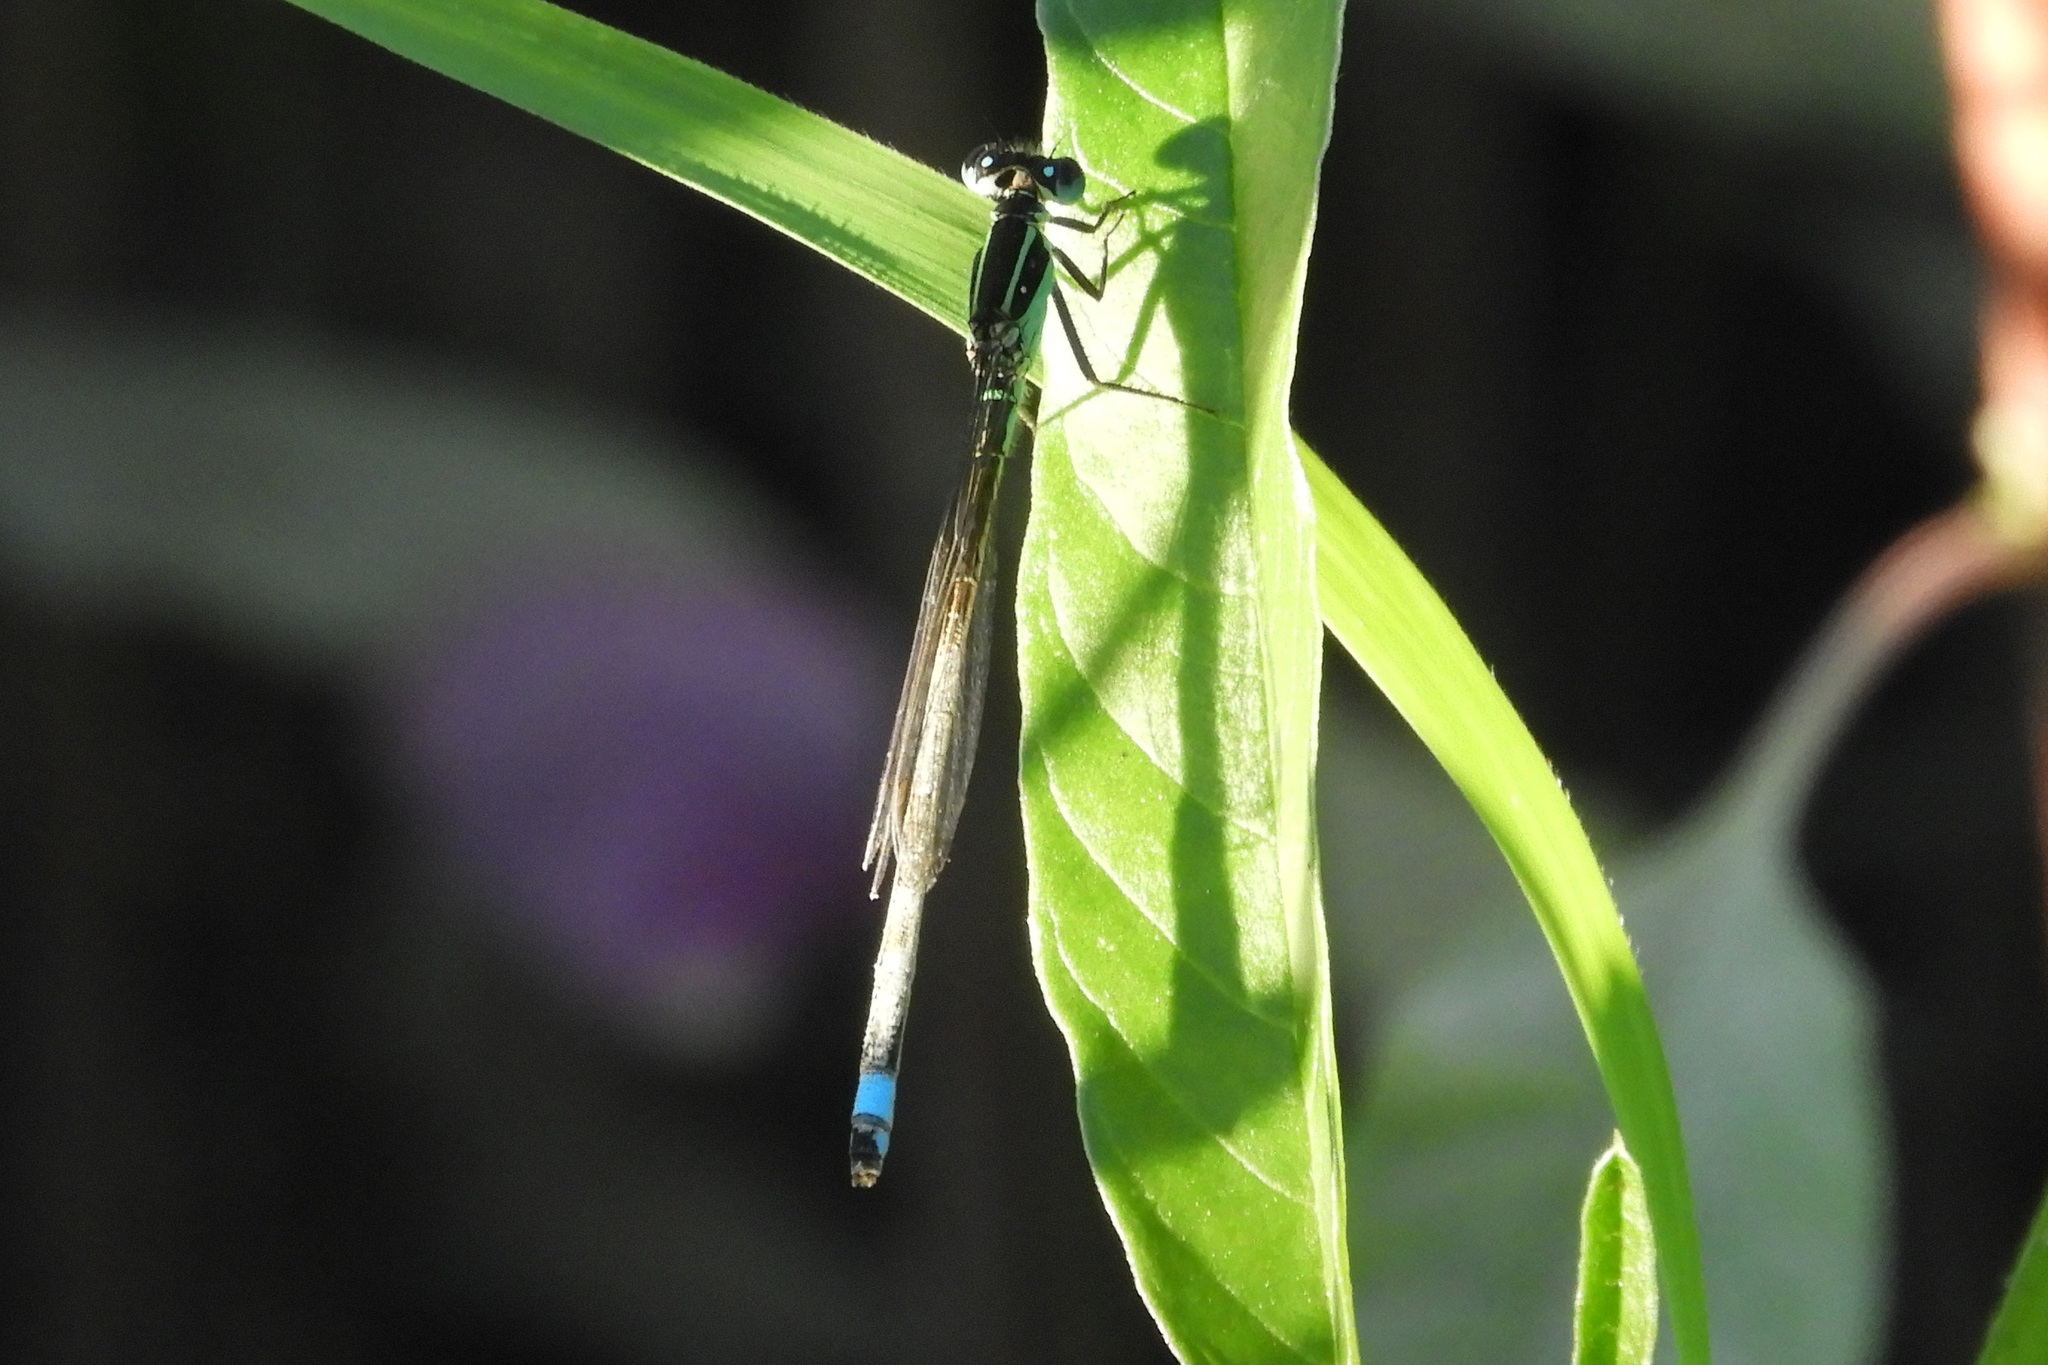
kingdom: Animalia
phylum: Arthropoda
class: Insecta
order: Odonata
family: Coenagrionidae
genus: Ischnura
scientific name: Ischnura ramburii
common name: Rambur's forktail
